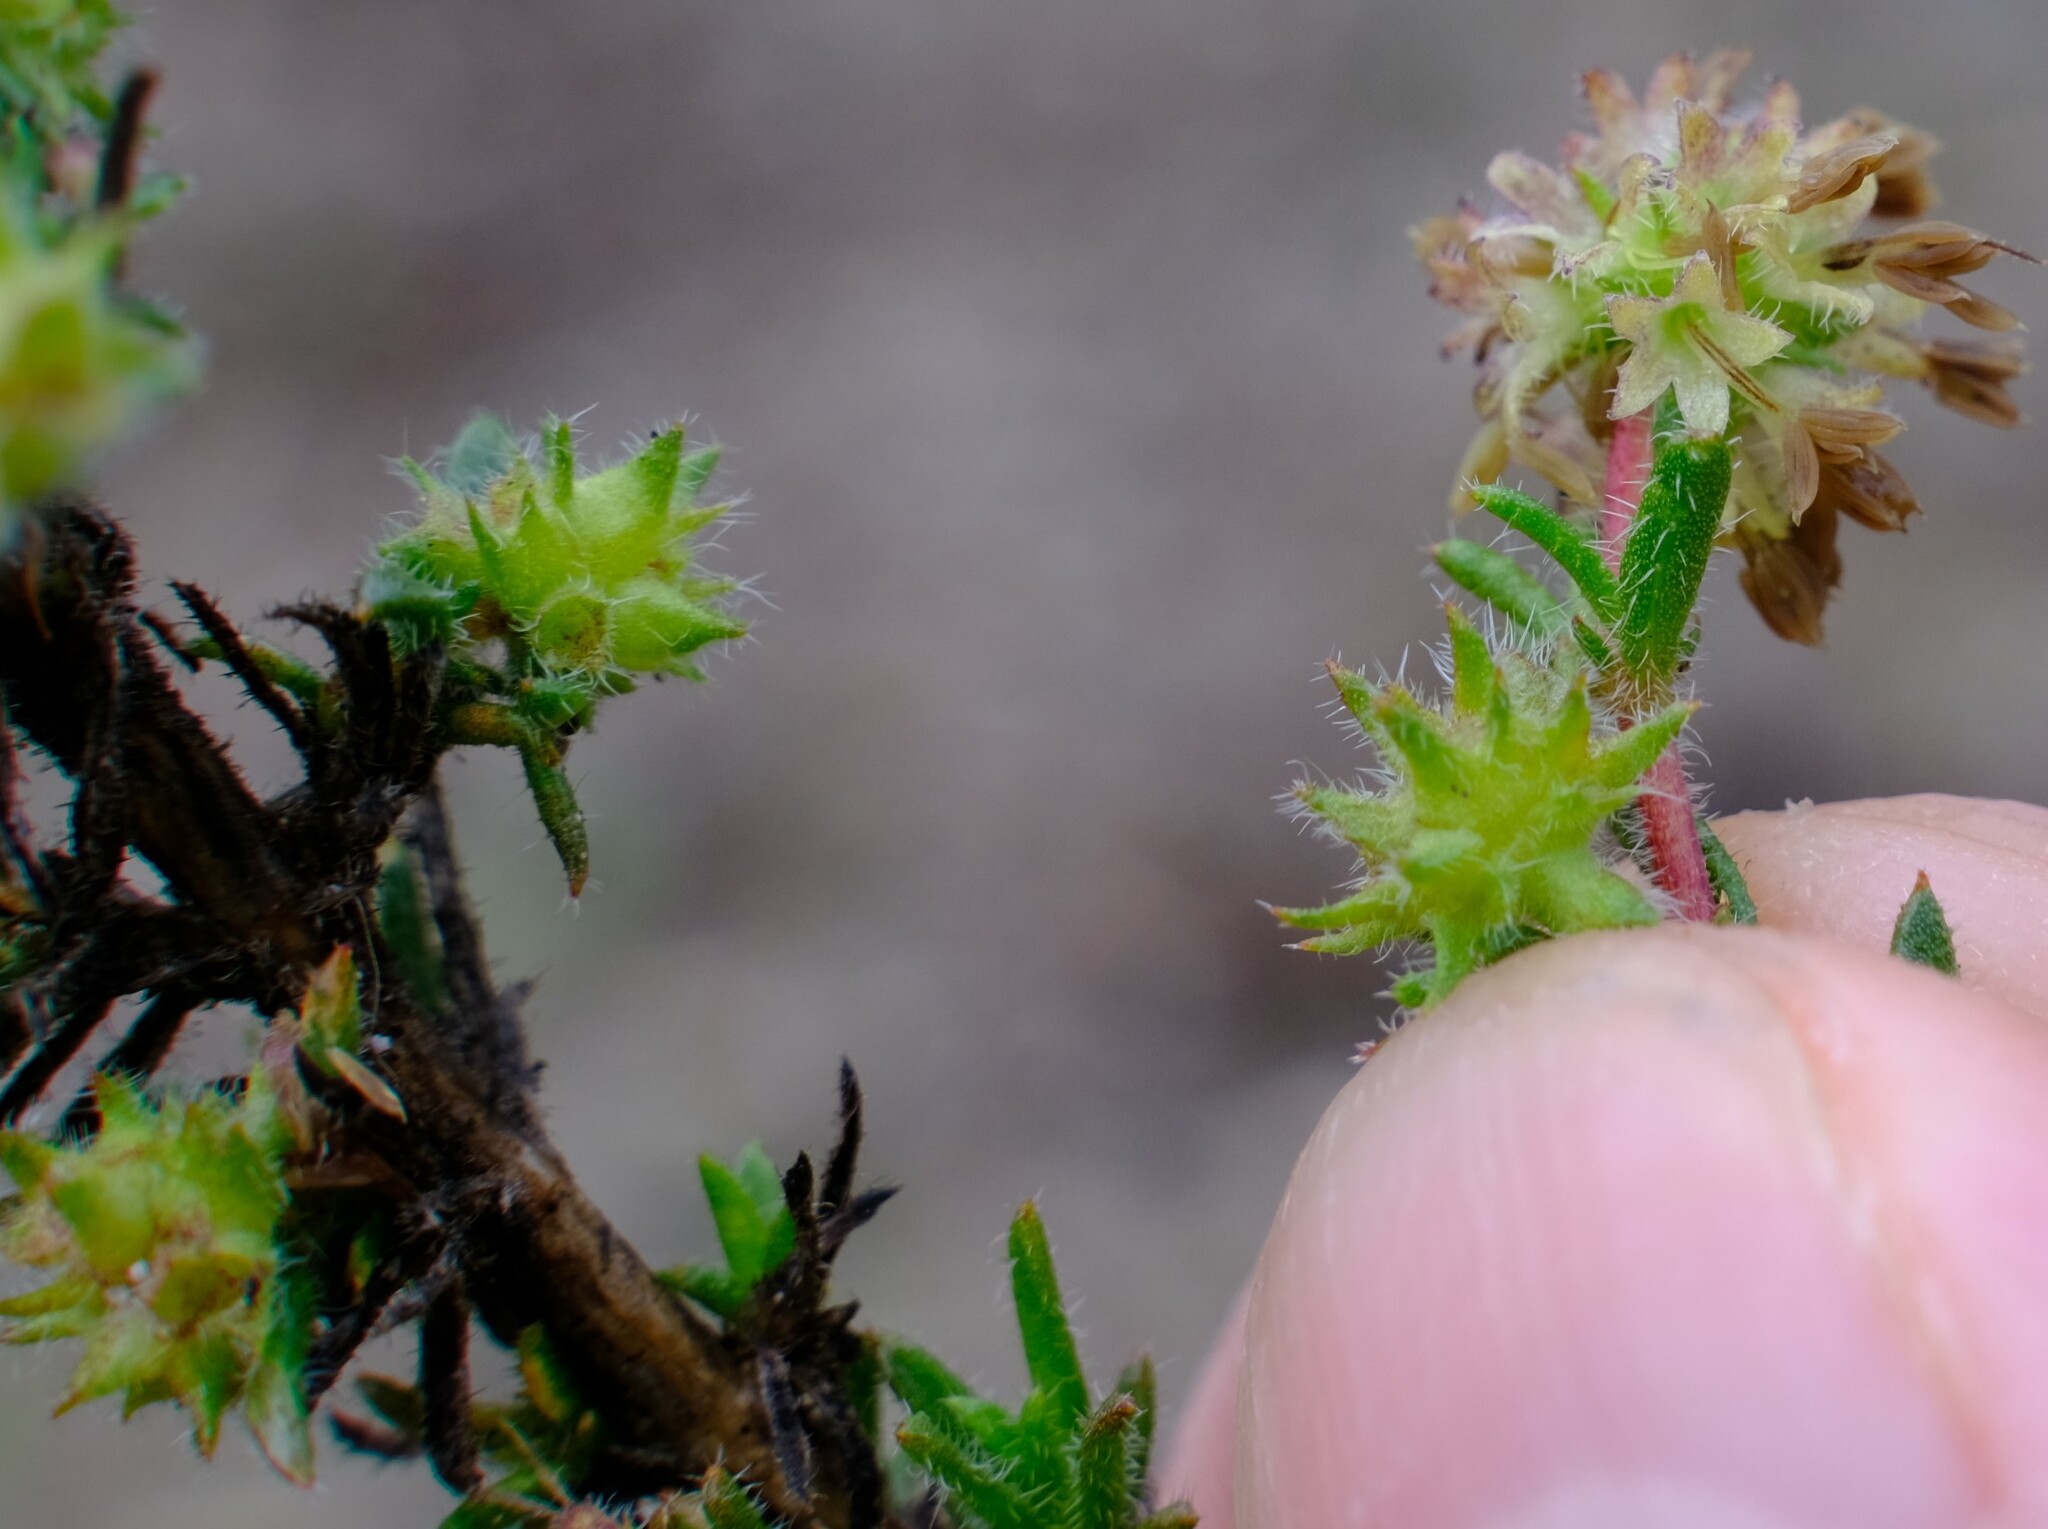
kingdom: Plantae
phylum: Tracheophyta
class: Magnoliopsida
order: Gentianales
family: Rubiaceae
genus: Opercularia
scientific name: Opercularia spermacocea
